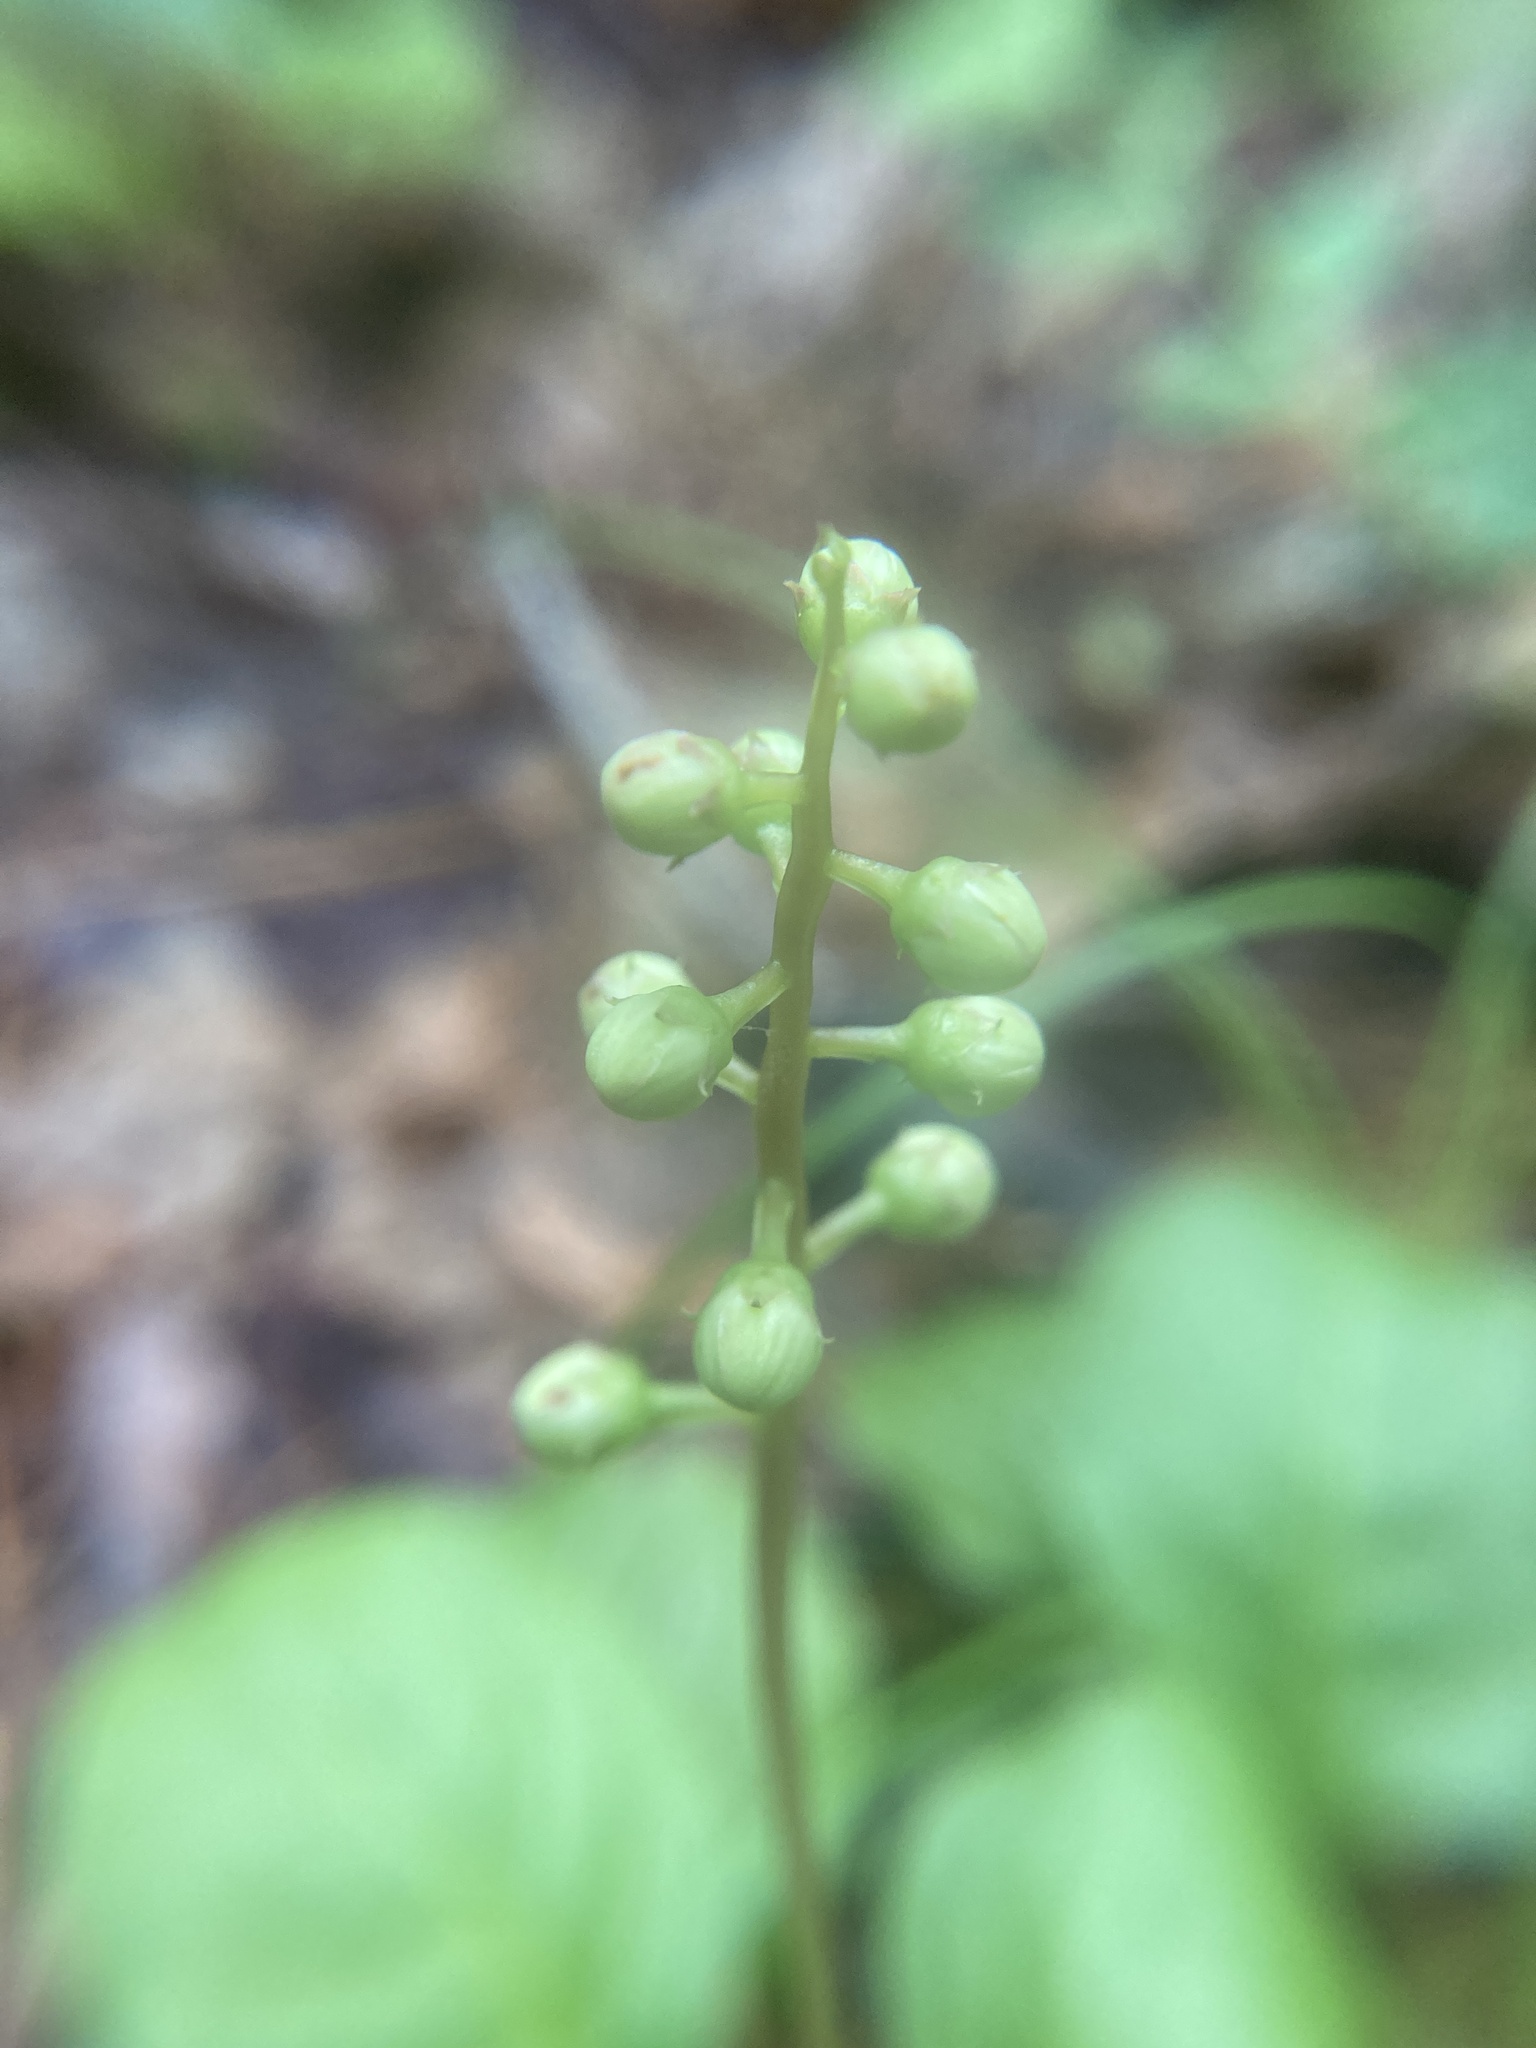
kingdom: Plantae
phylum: Tracheophyta
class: Magnoliopsida
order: Ericales
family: Ericaceae
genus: Pyrola
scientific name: Pyrola elliptica
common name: Shinleaf
